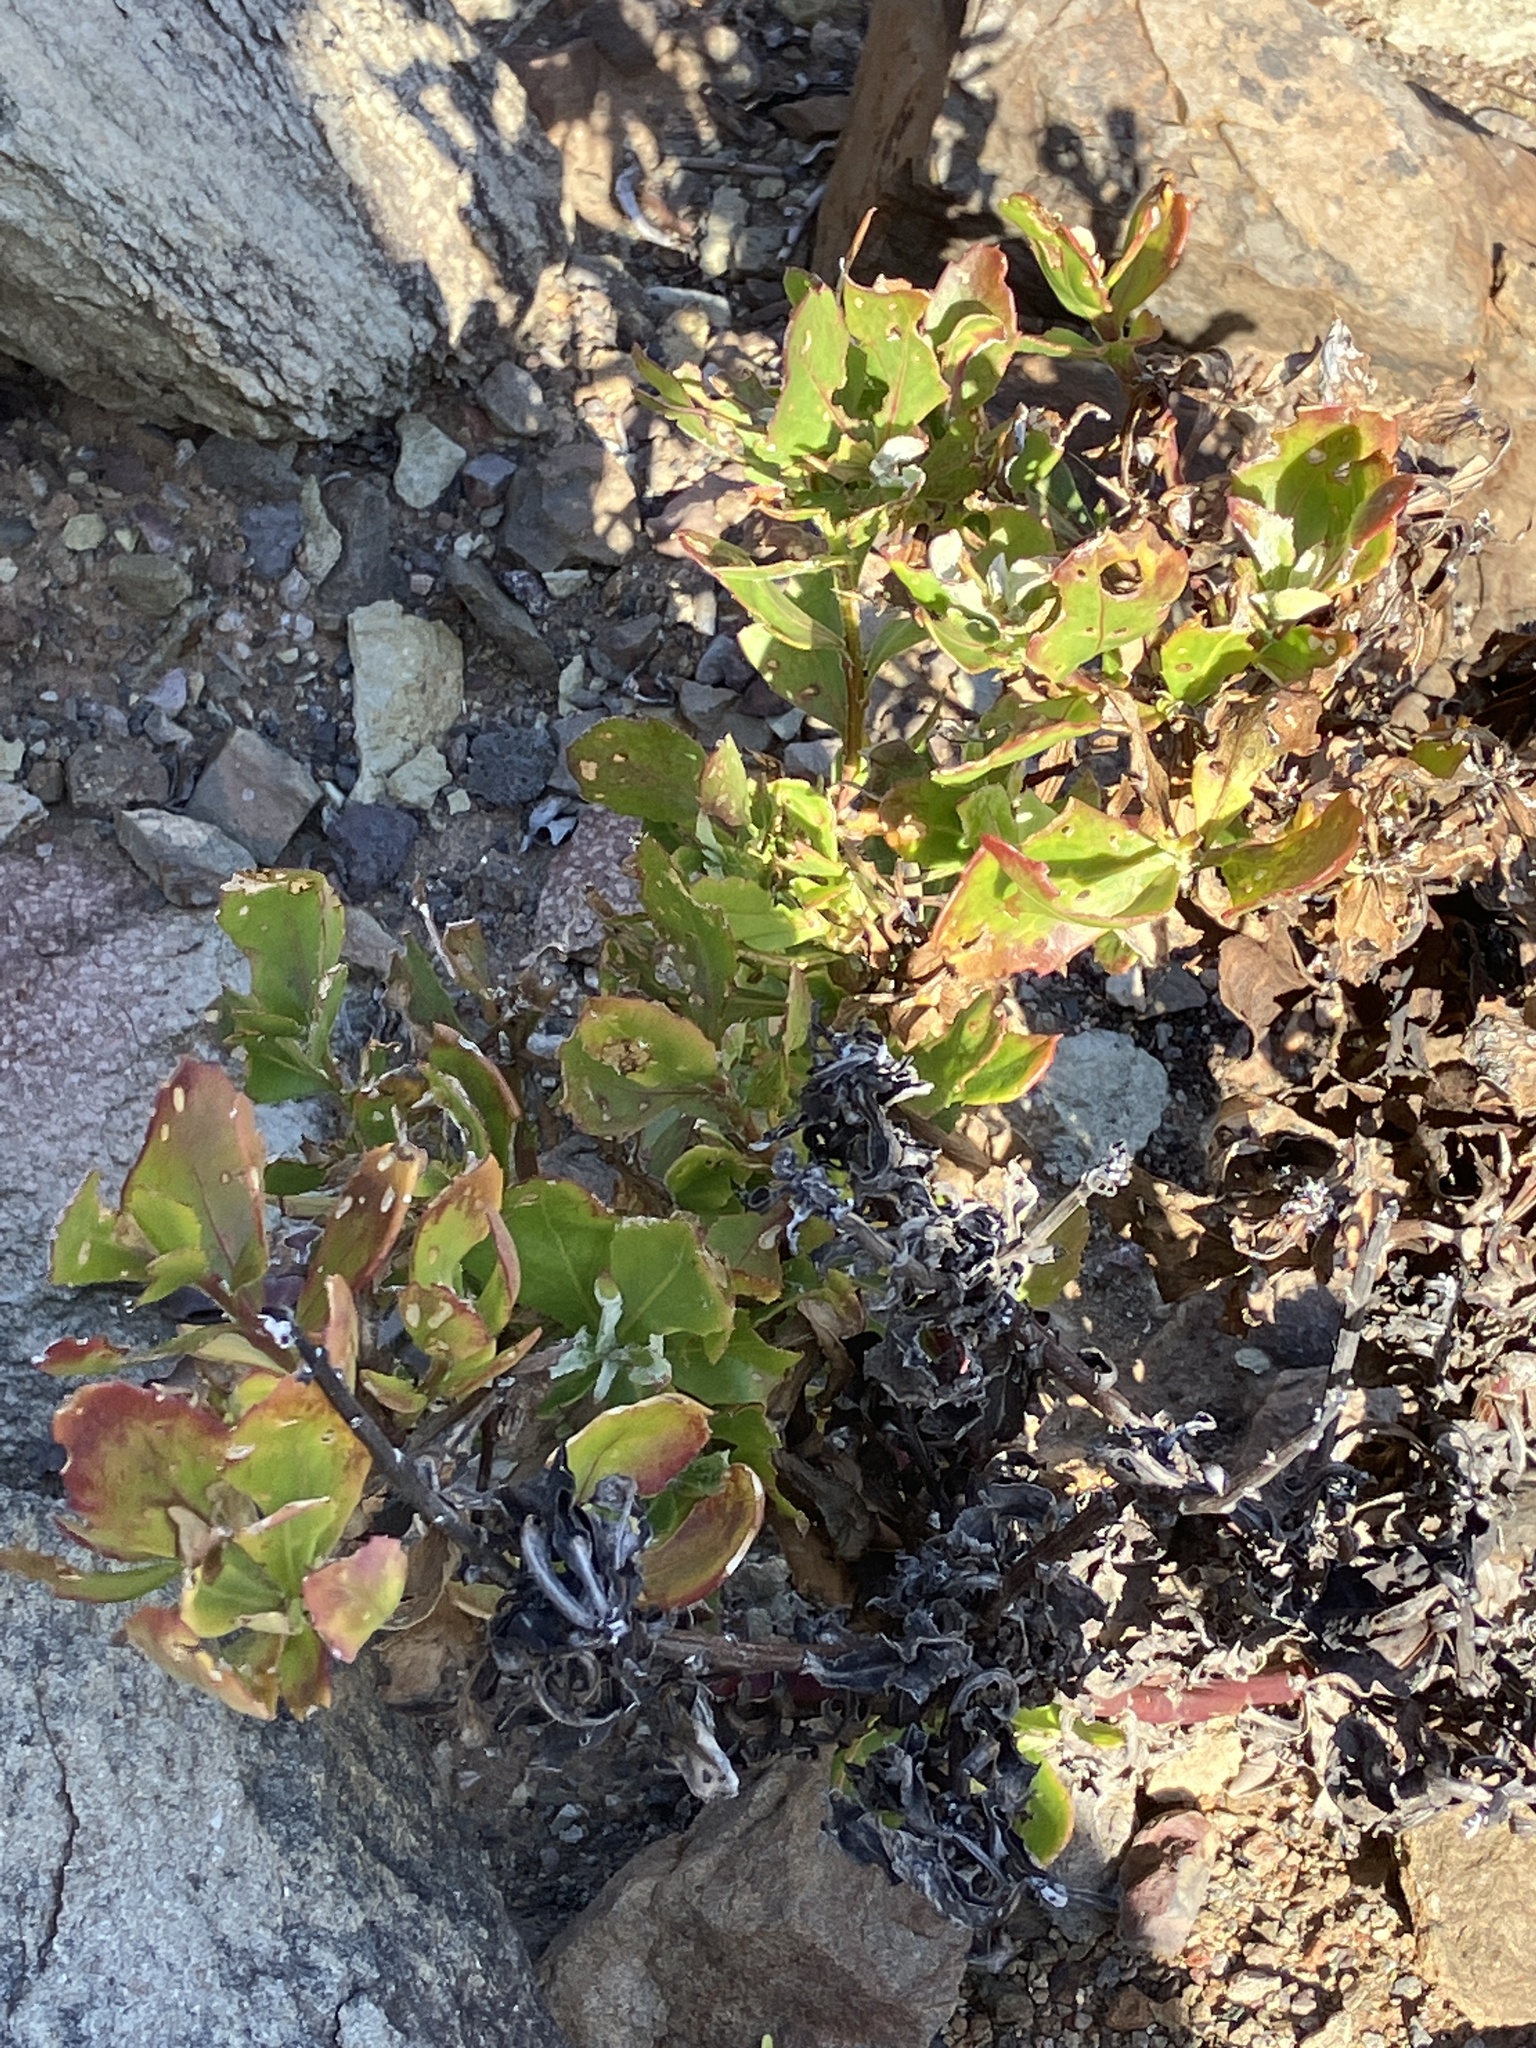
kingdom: Plantae
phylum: Tracheophyta
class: Magnoliopsida
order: Asterales
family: Asteraceae
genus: Osteospermum
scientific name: Osteospermum moniliferum
